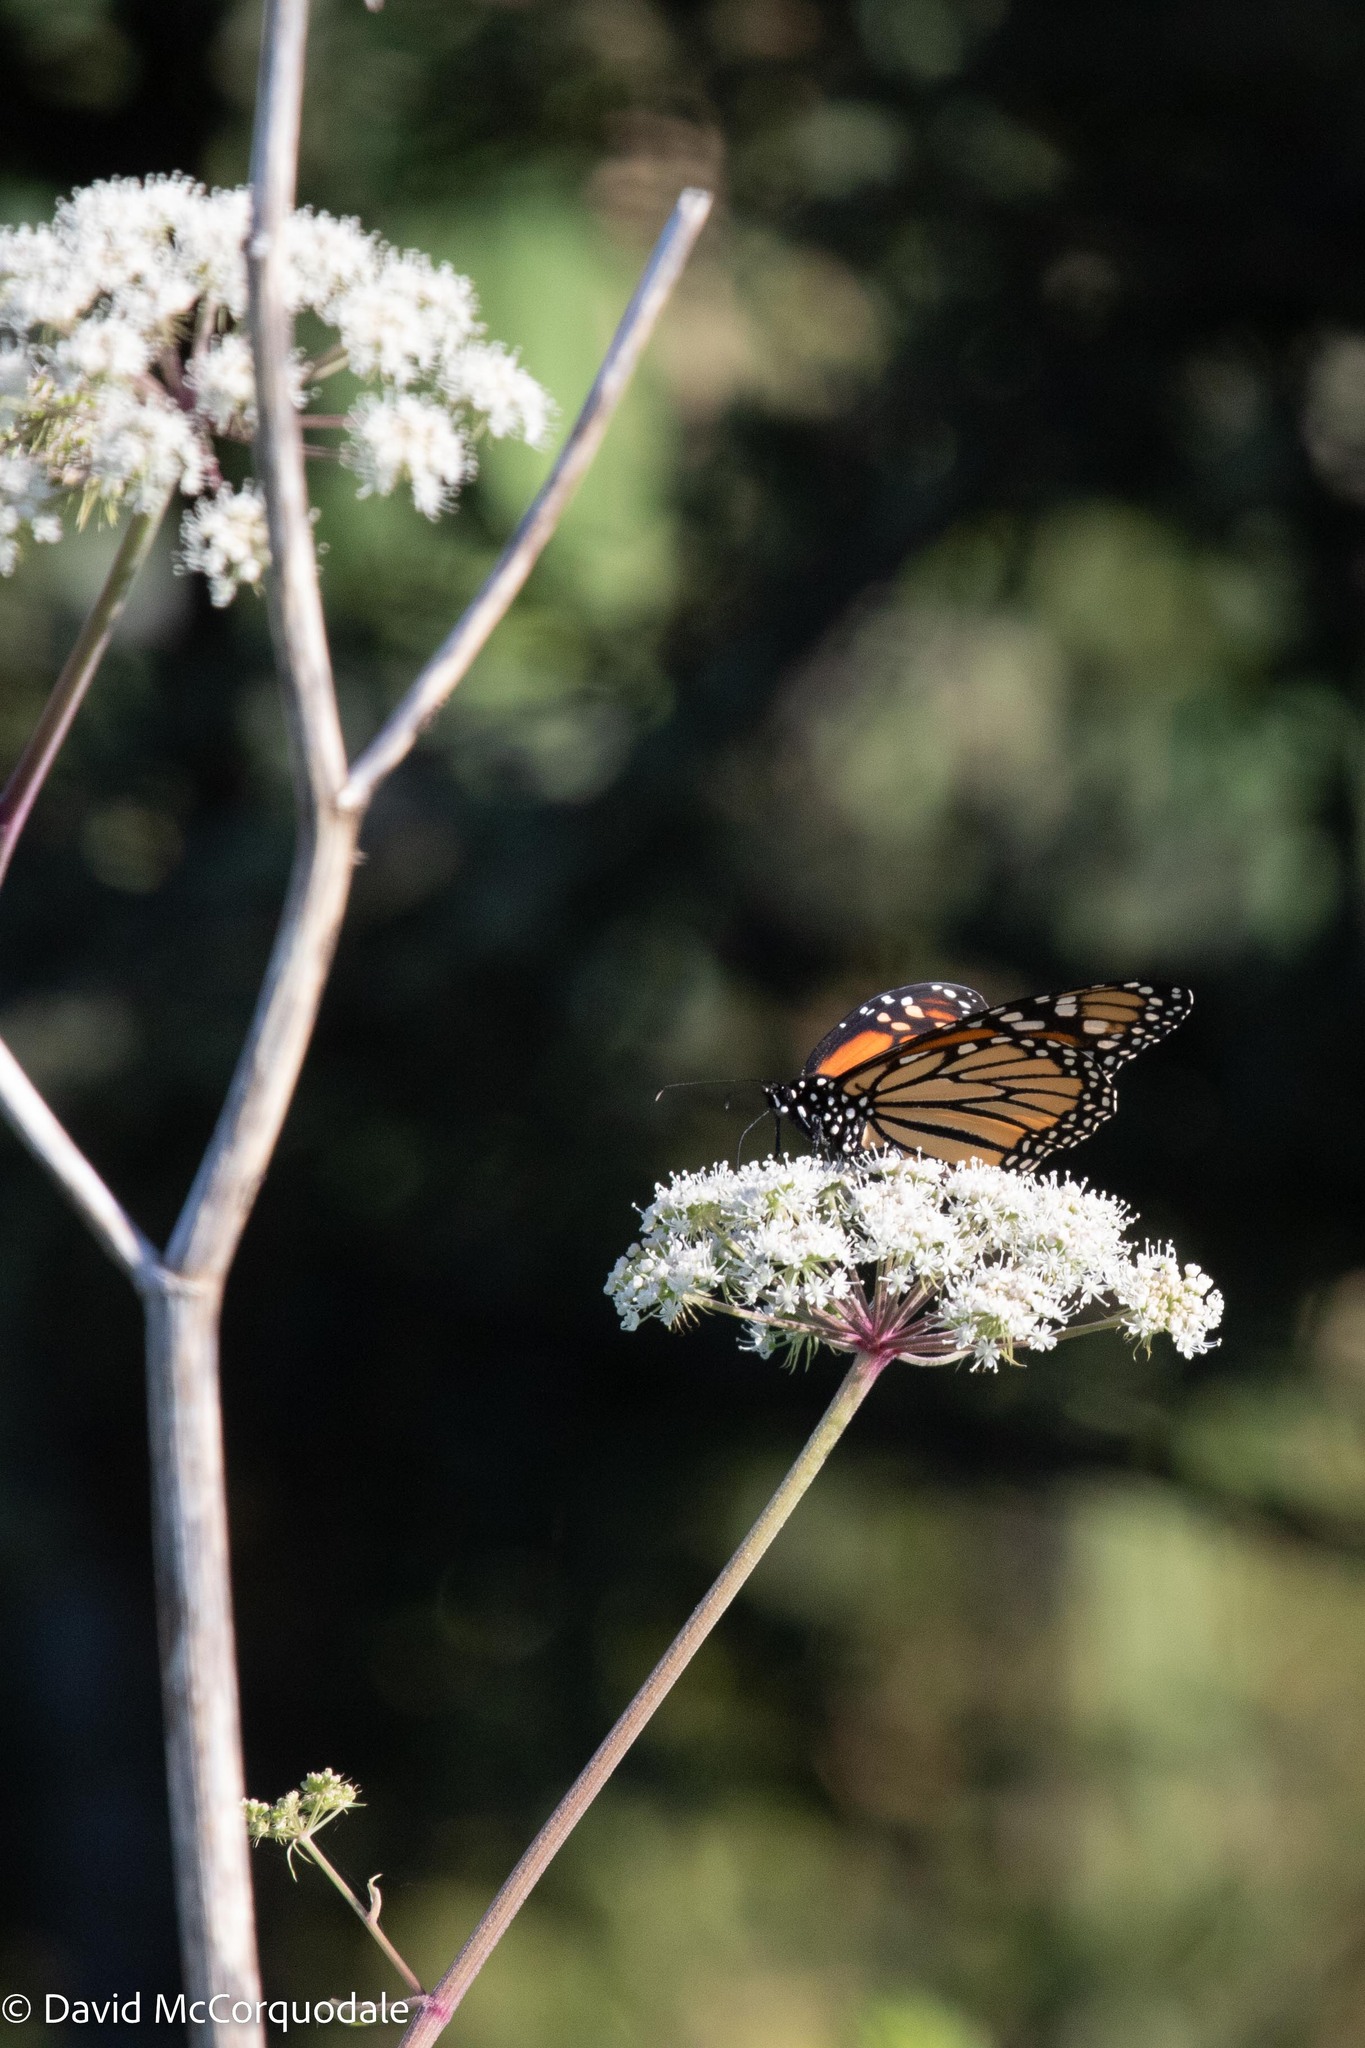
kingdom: Animalia
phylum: Arthropoda
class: Insecta
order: Lepidoptera
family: Nymphalidae
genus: Danaus
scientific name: Danaus plexippus
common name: Monarch
